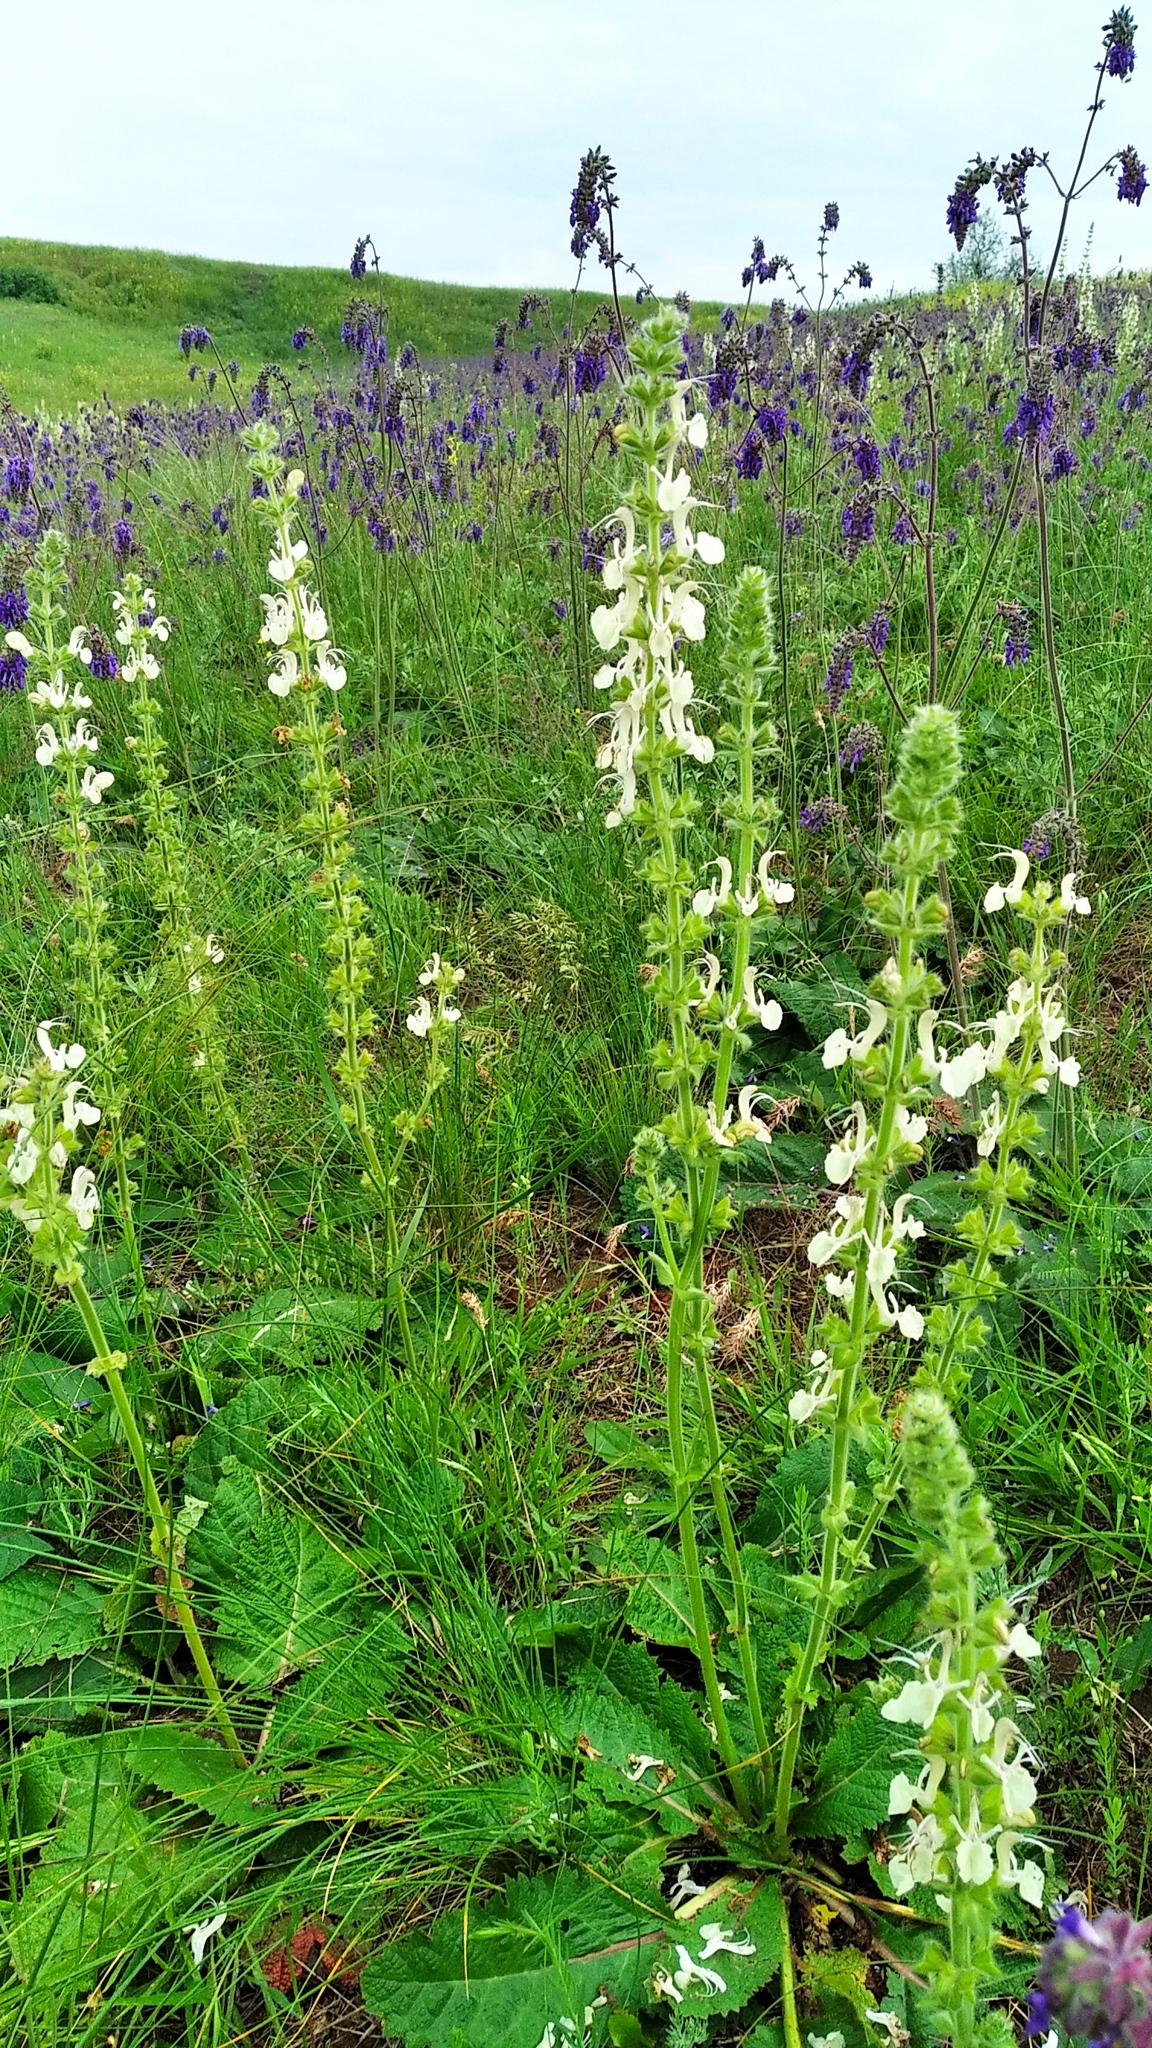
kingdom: Plantae
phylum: Tracheophyta
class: Magnoliopsida
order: Lamiales
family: Lamiaceae
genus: Salvia
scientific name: Salvia revoluta
